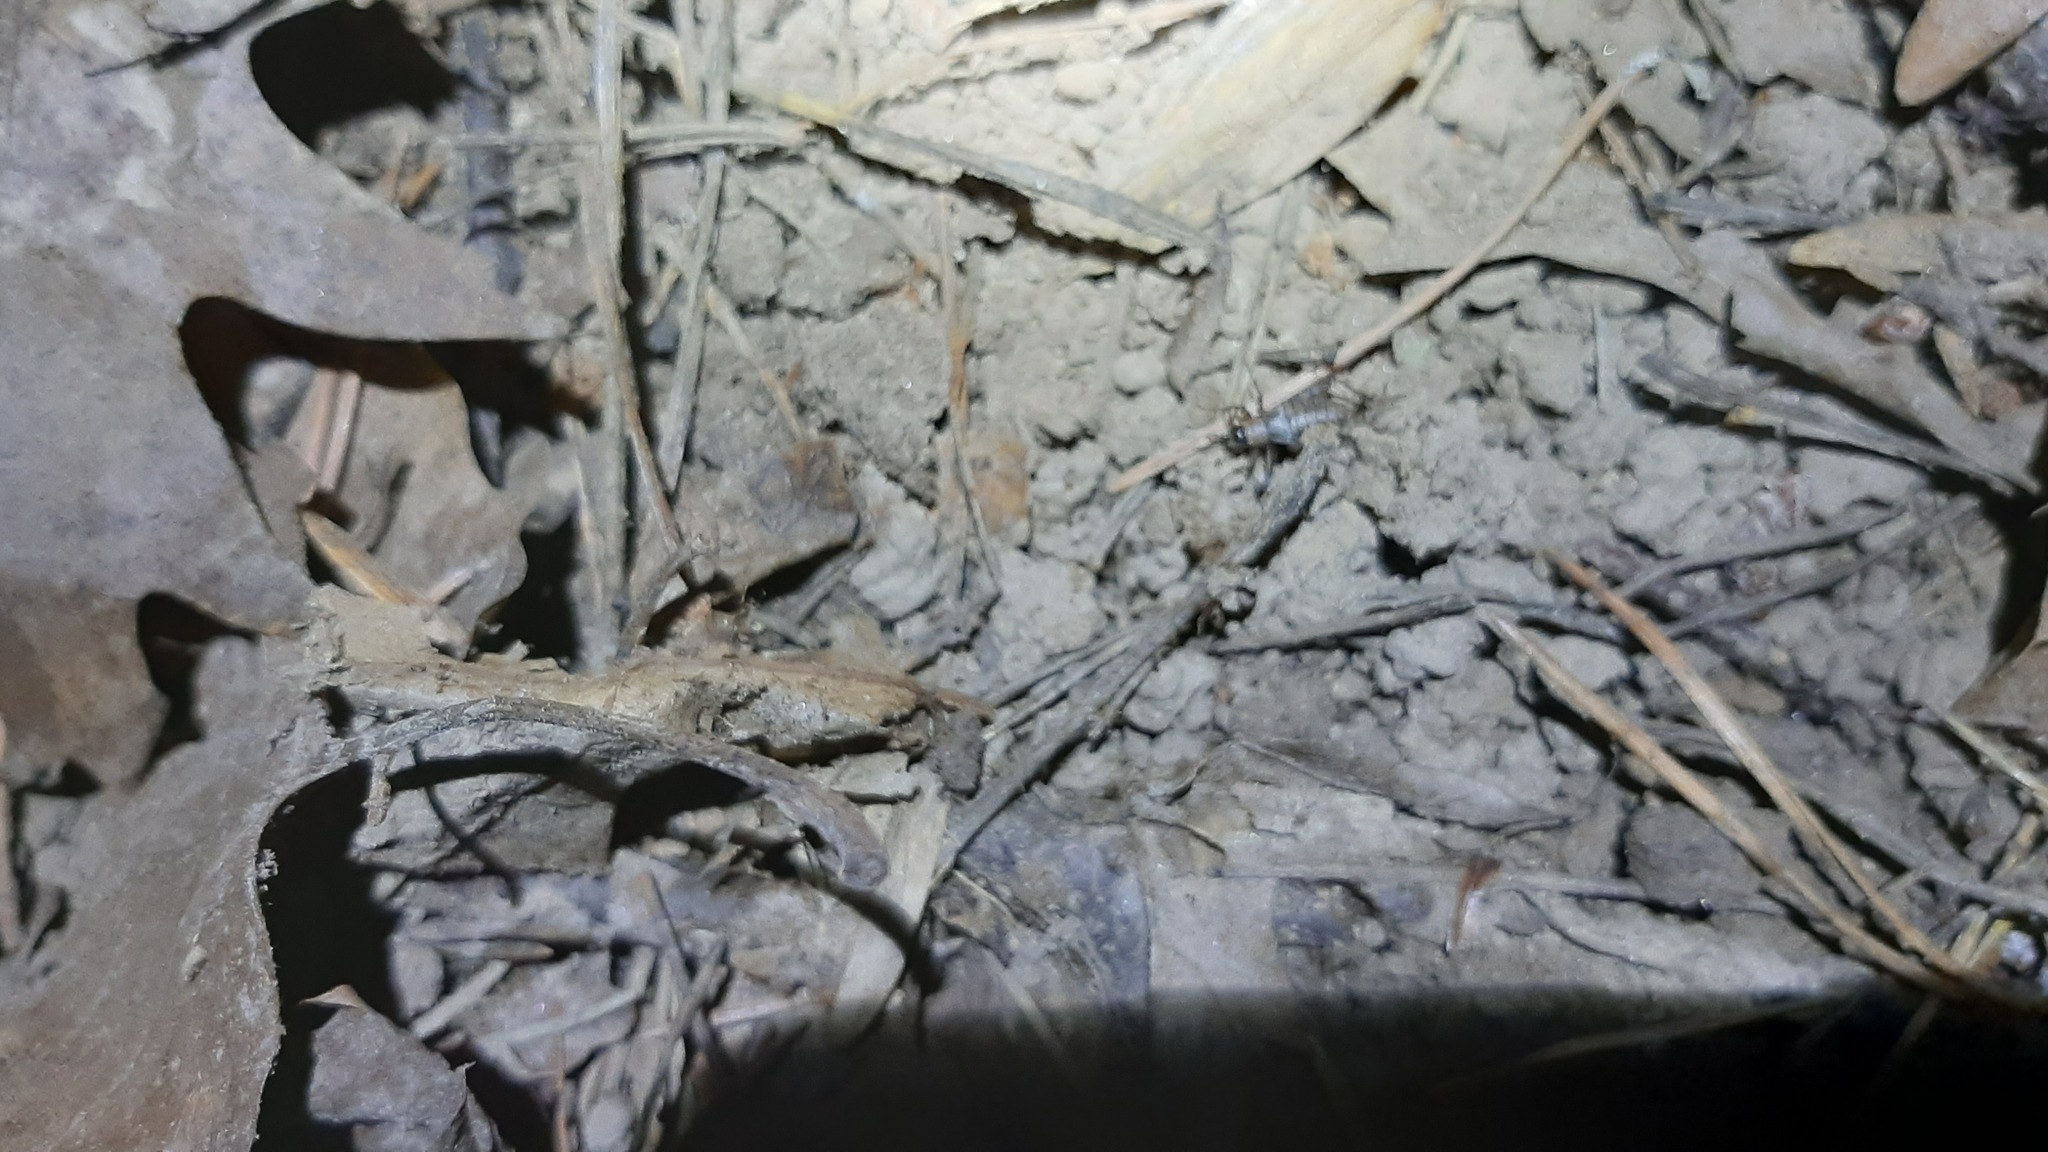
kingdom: Animalia
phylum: Arthropoda
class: Insecta
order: Orthoptera
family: Gryllidae
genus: Eumodicogryllus
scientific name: Eumodicogryllus bordigalensis
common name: Bordeaux cricket
